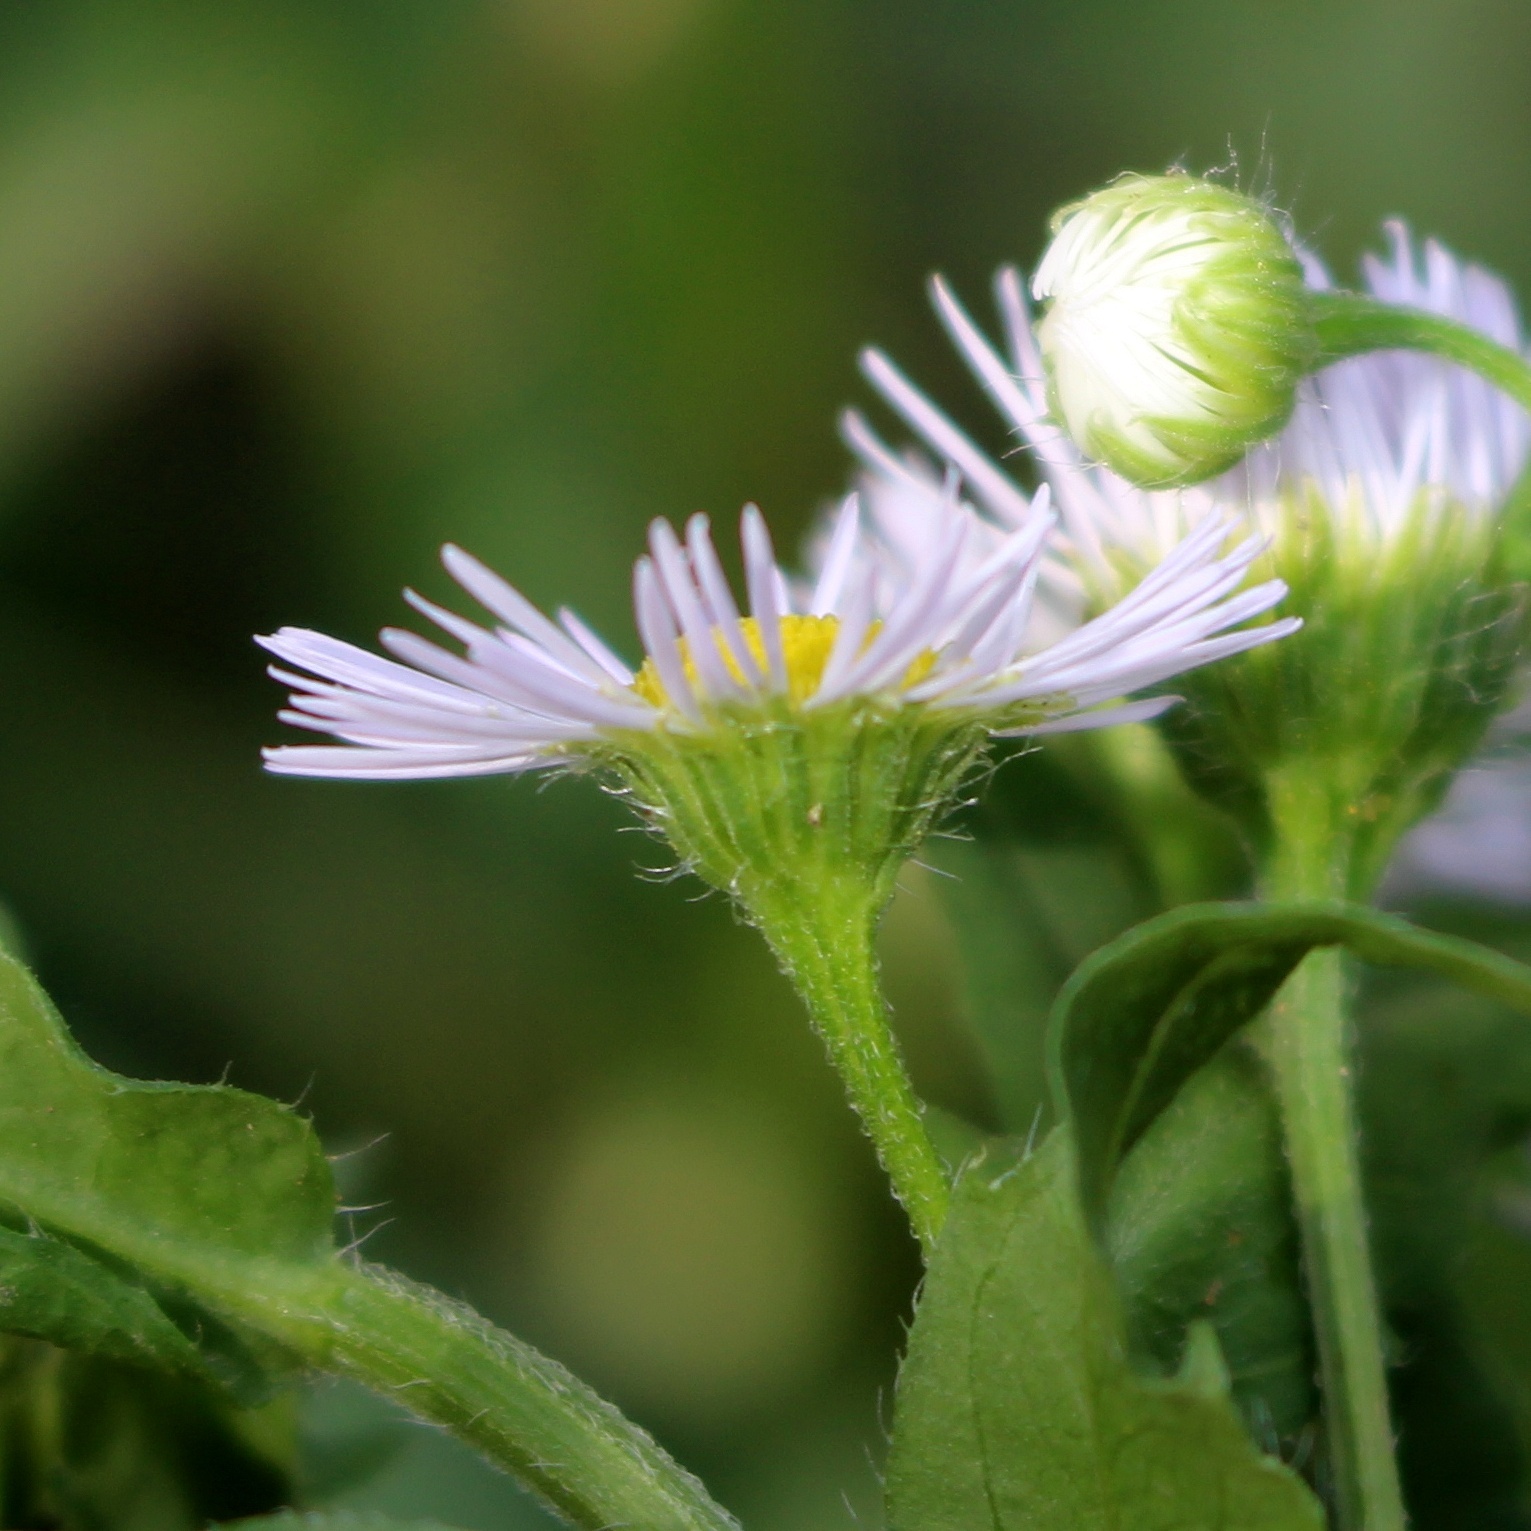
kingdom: Plantae
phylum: Tracheophyta
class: Magnoliopsida
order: Asterales
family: Asteraceae
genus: Erigeron
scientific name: Erigeron annuus
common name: Tall fleabane
